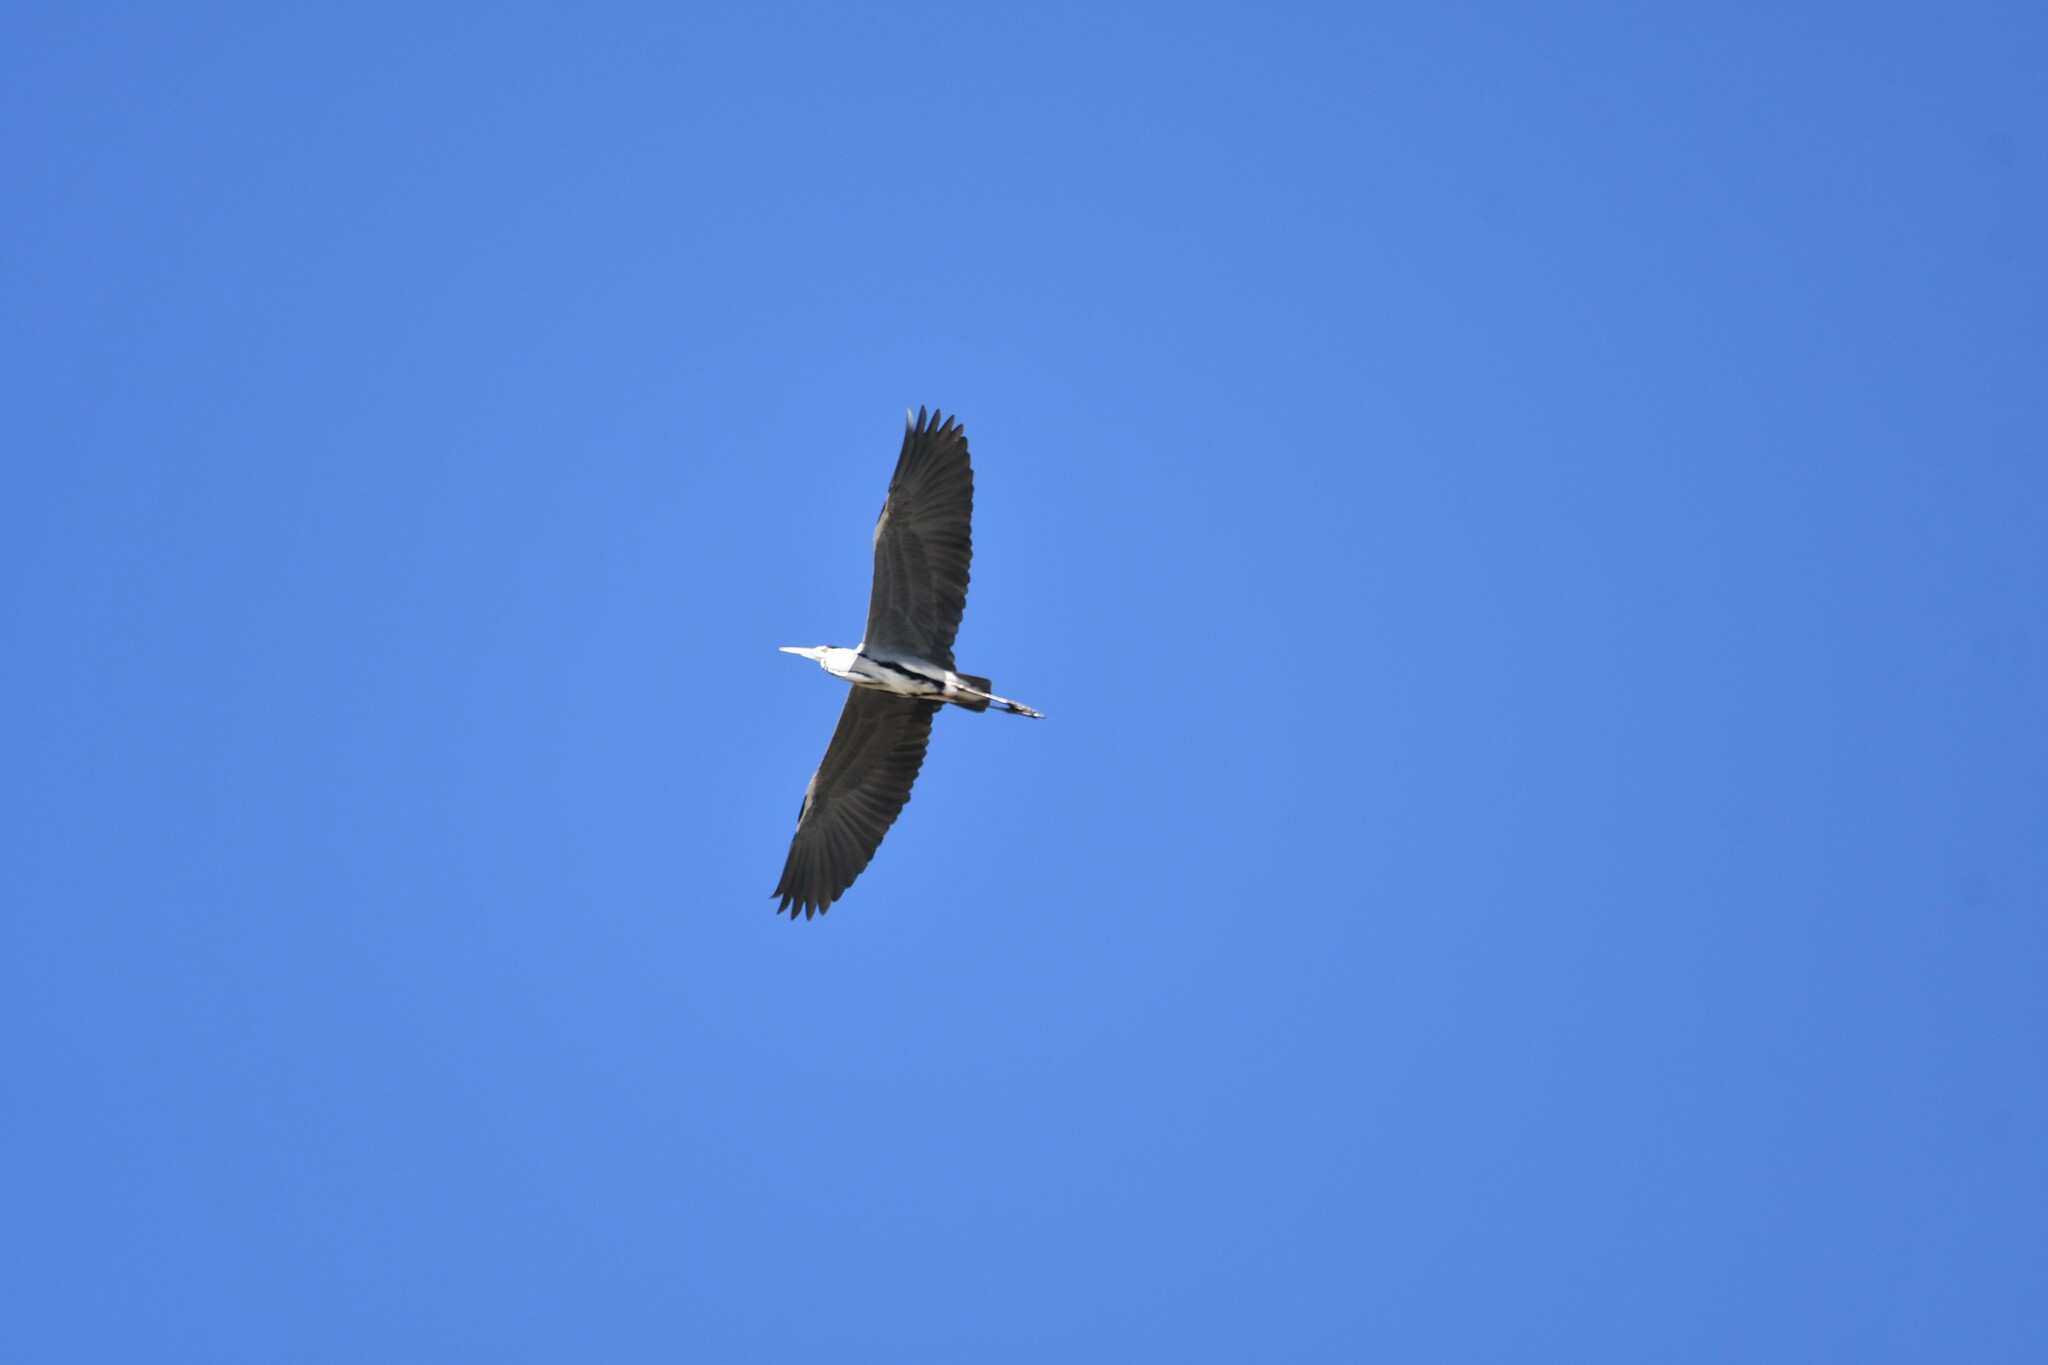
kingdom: Animalia
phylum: Chordata
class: Aves
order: Pelecaniformes
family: Ardeidae
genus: Ardea
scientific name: Ardea cinerea
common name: Grey heron
